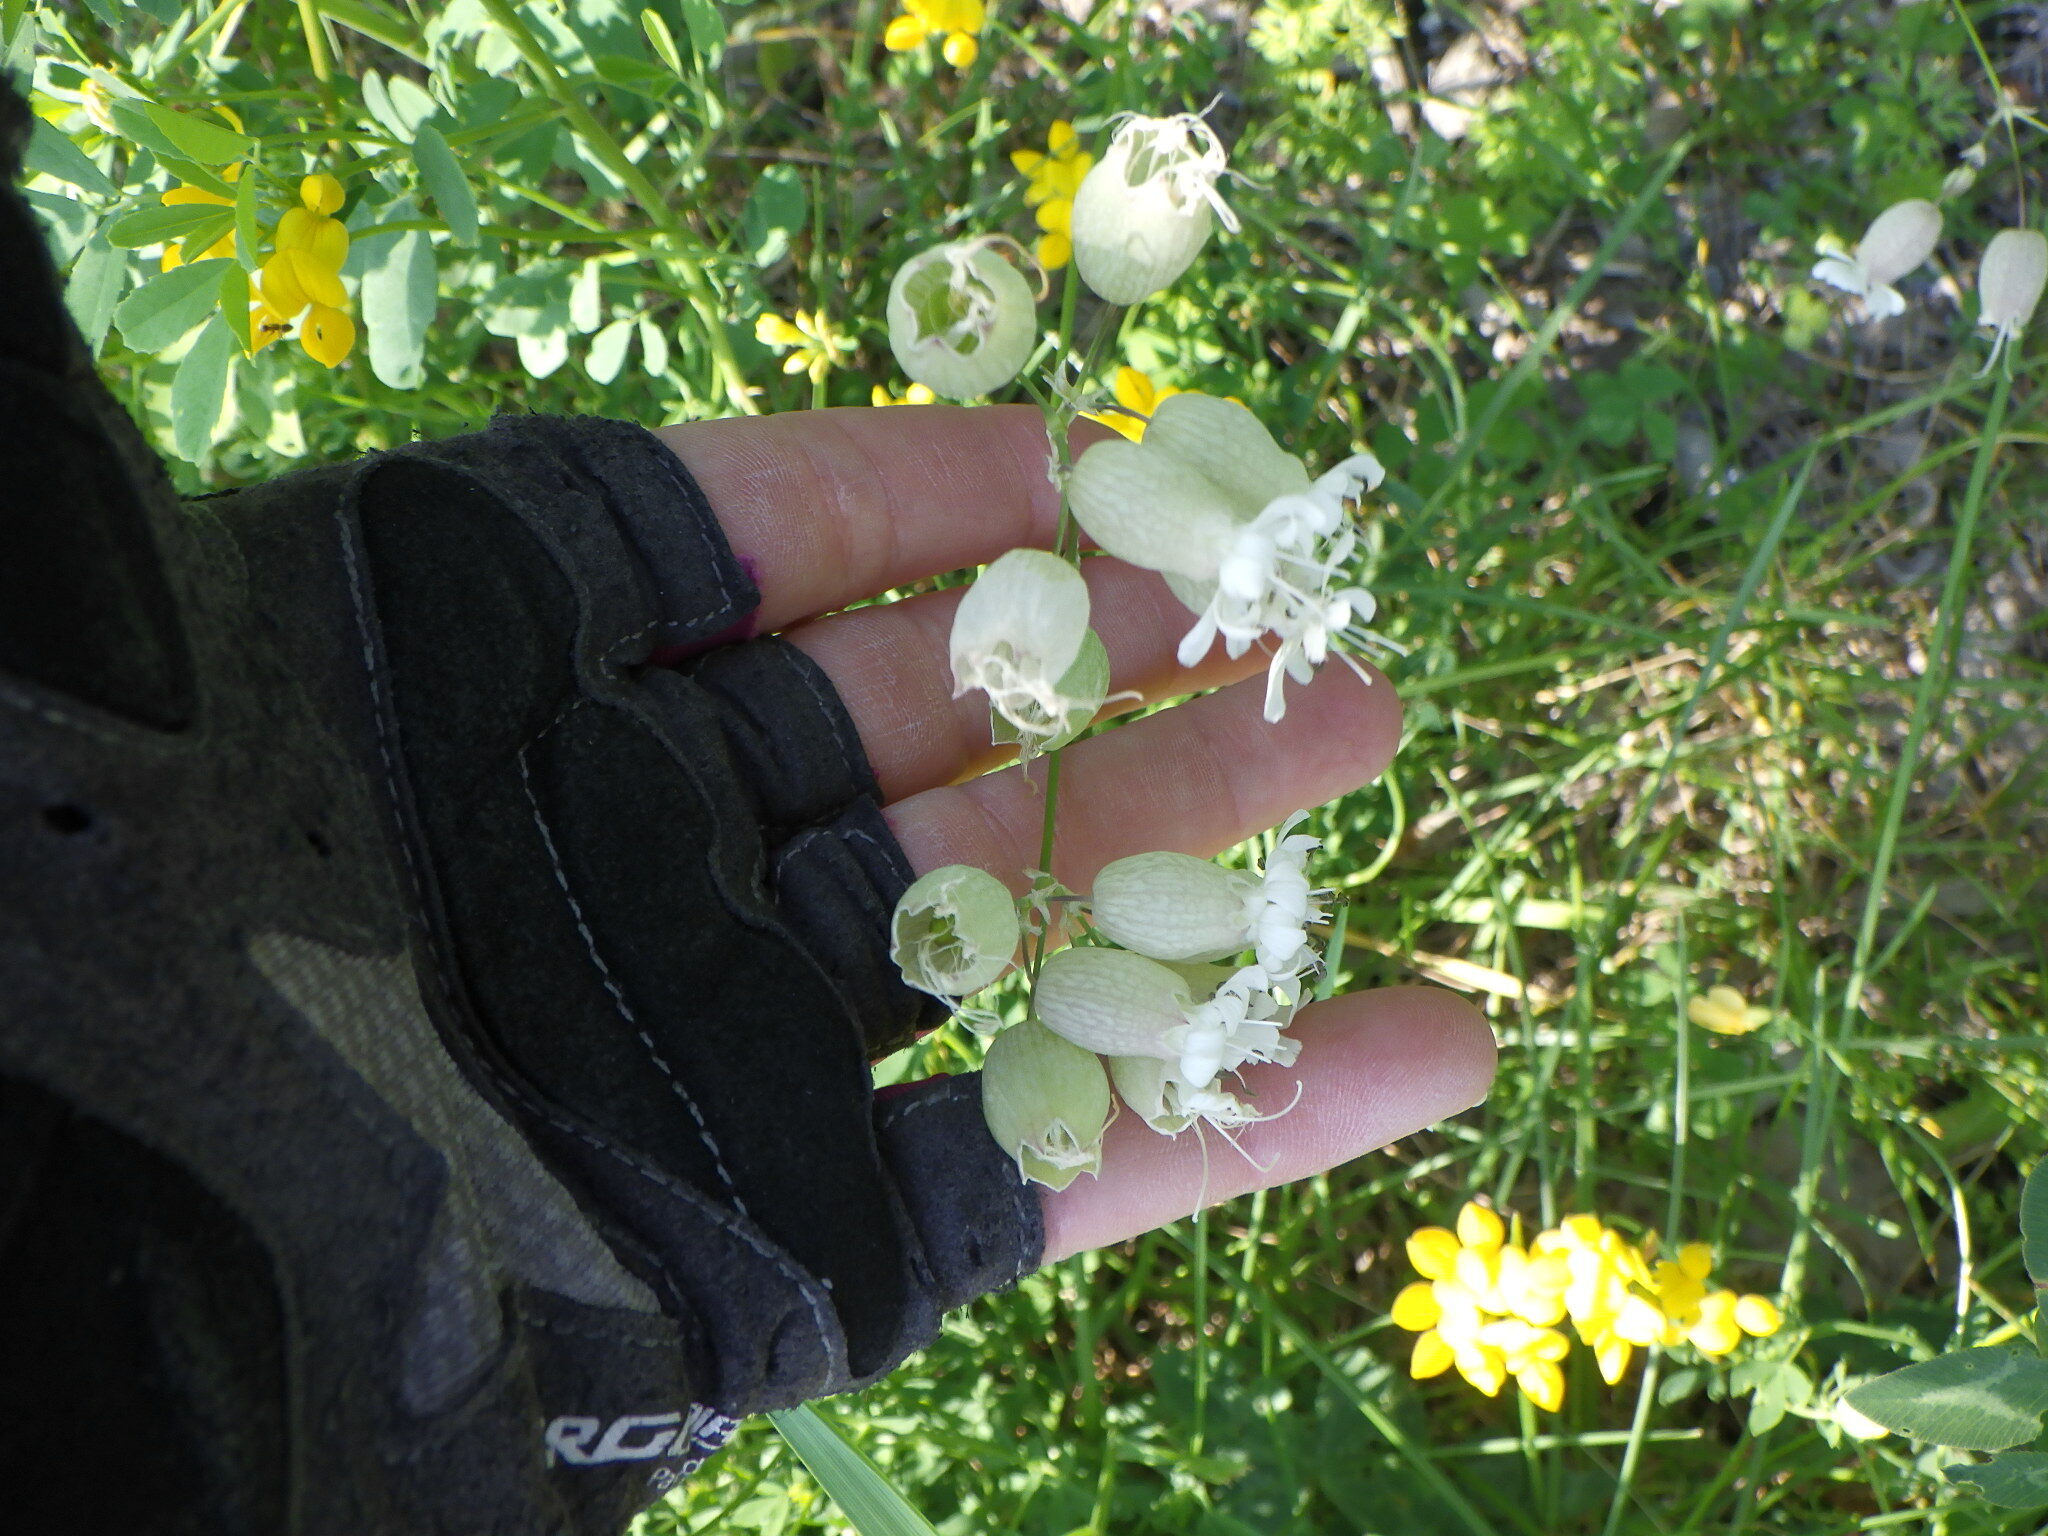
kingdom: Plantae
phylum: Tracheophyta
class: Magnoliopsida
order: Caryophyllales
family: Caryophyllaceae
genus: Silene
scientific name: Silene vulgaris
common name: Bladder campion
